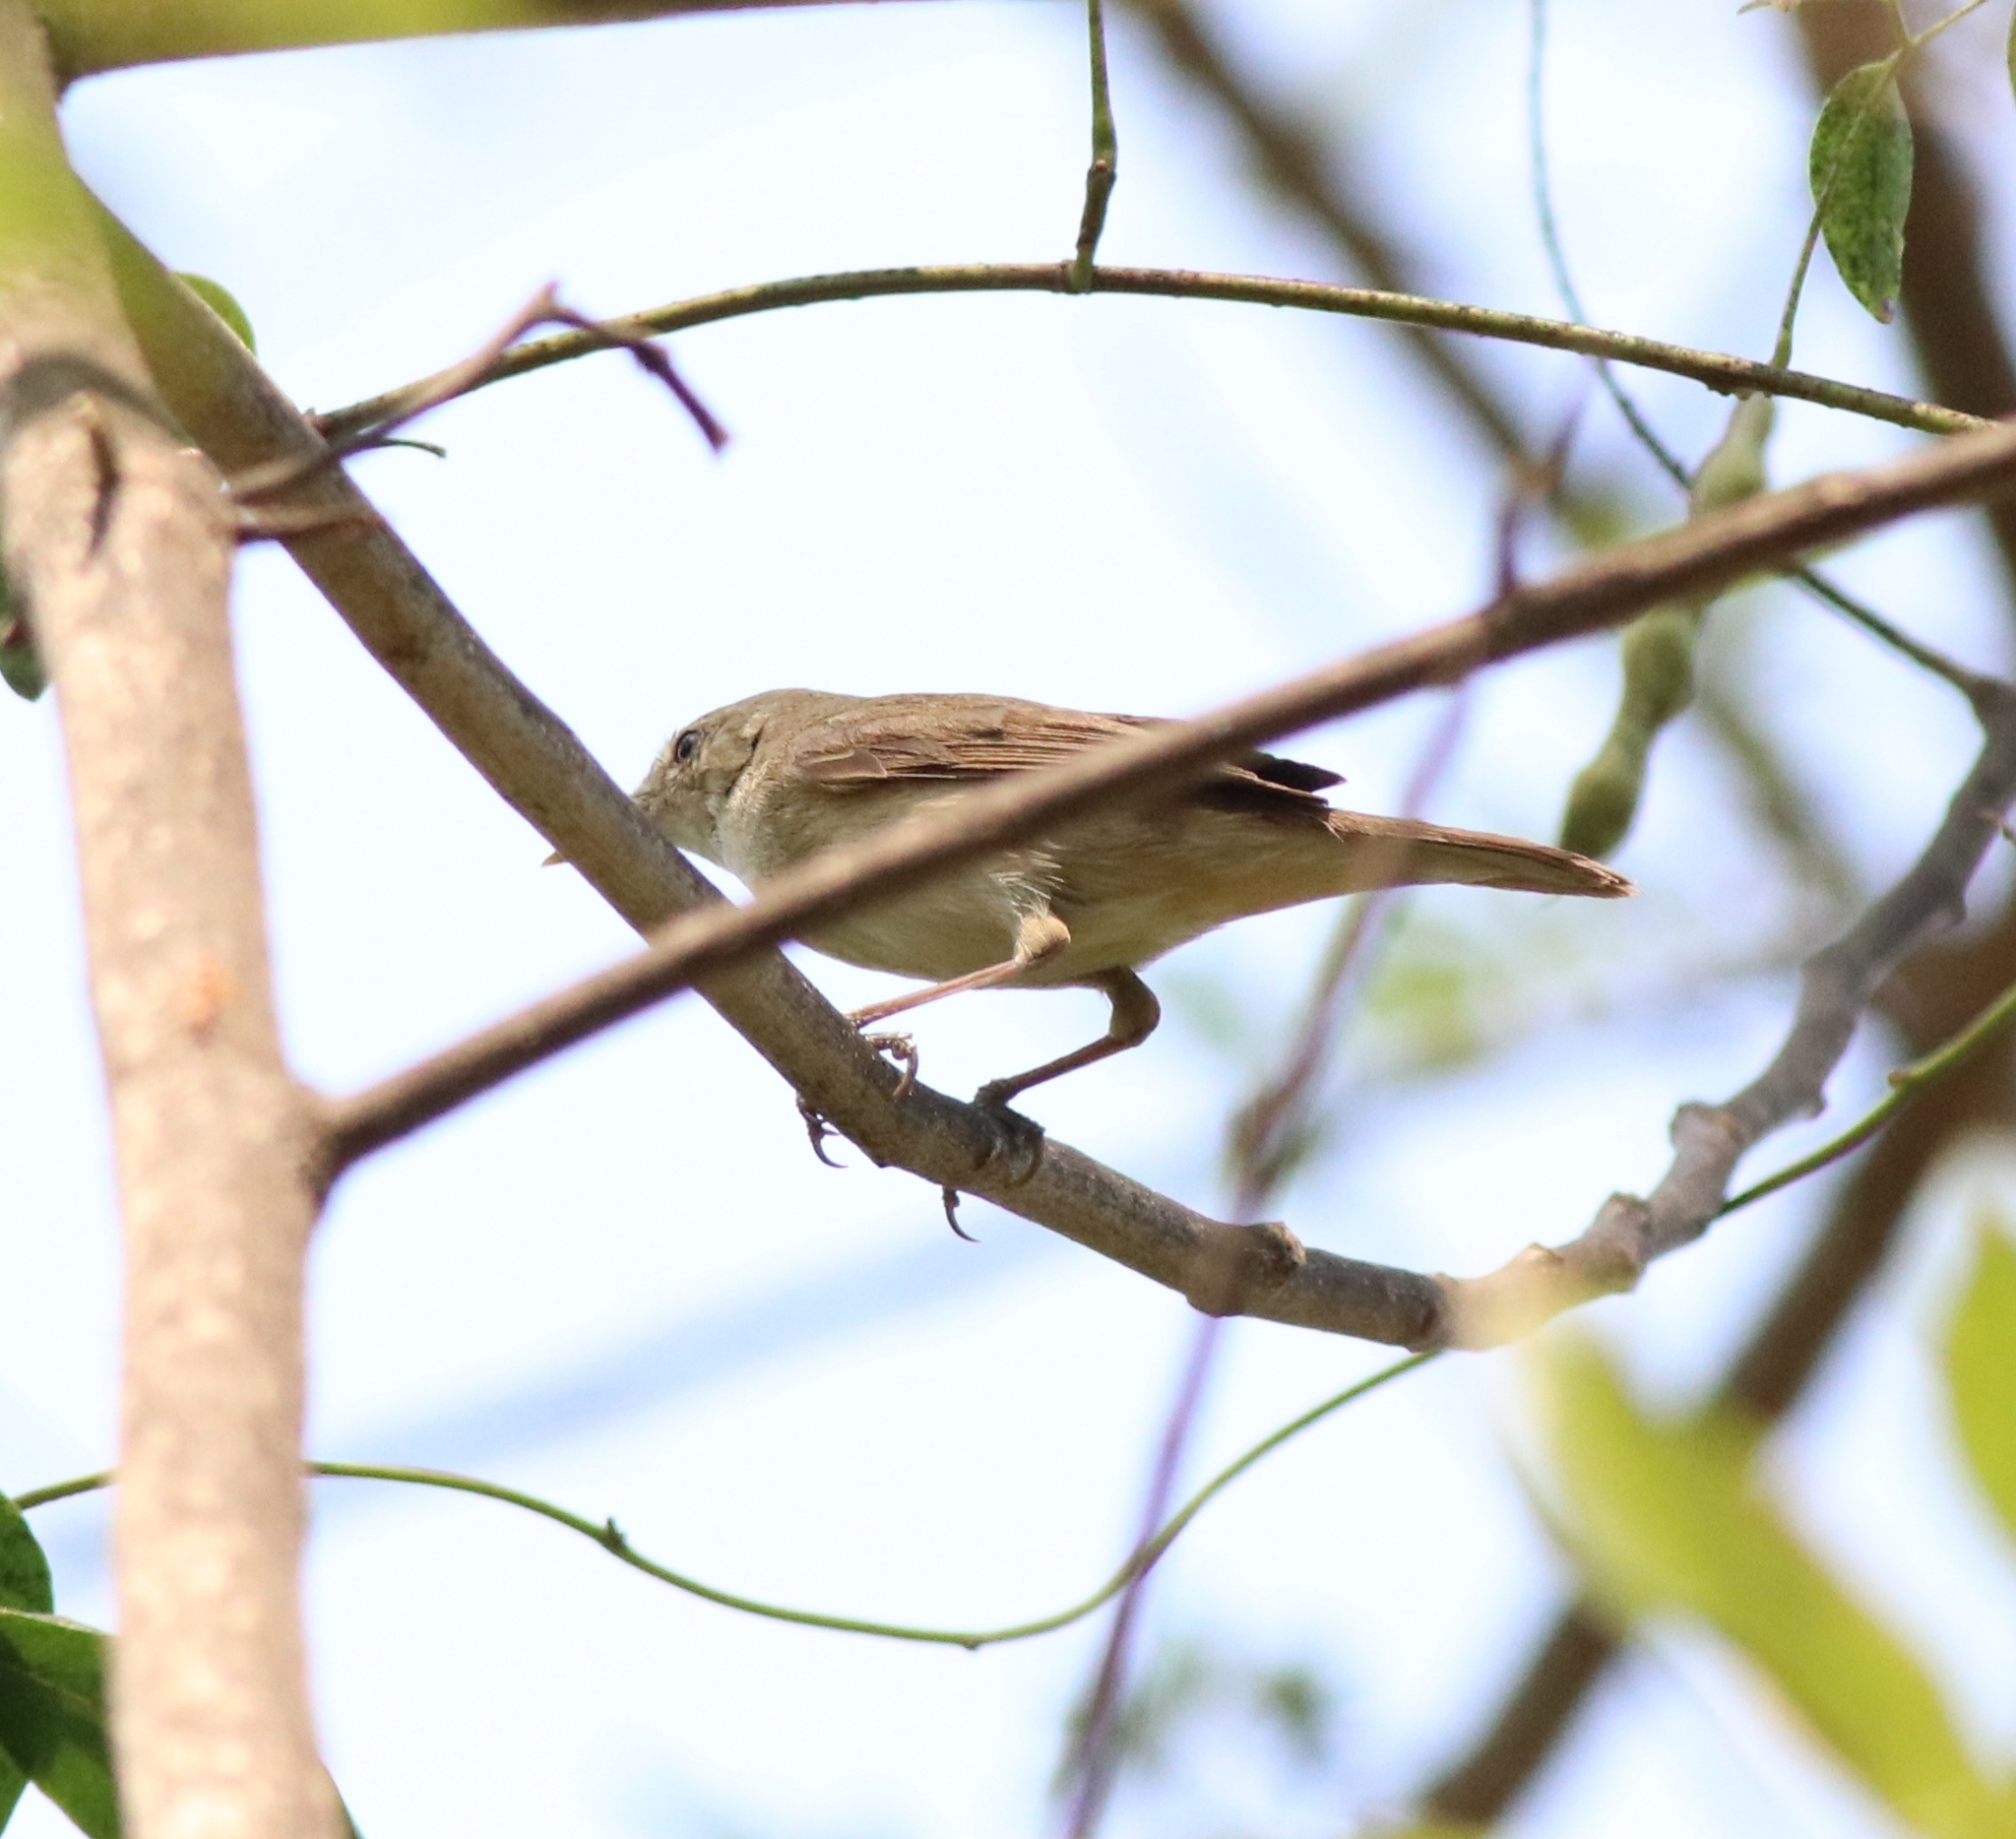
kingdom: Animalia
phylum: Chordata
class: Aves
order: Passeriformes
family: Acrocephalidae
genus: Acrocephalus
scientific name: Acrocephalus dumetorum
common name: Blyth's reed warbler
